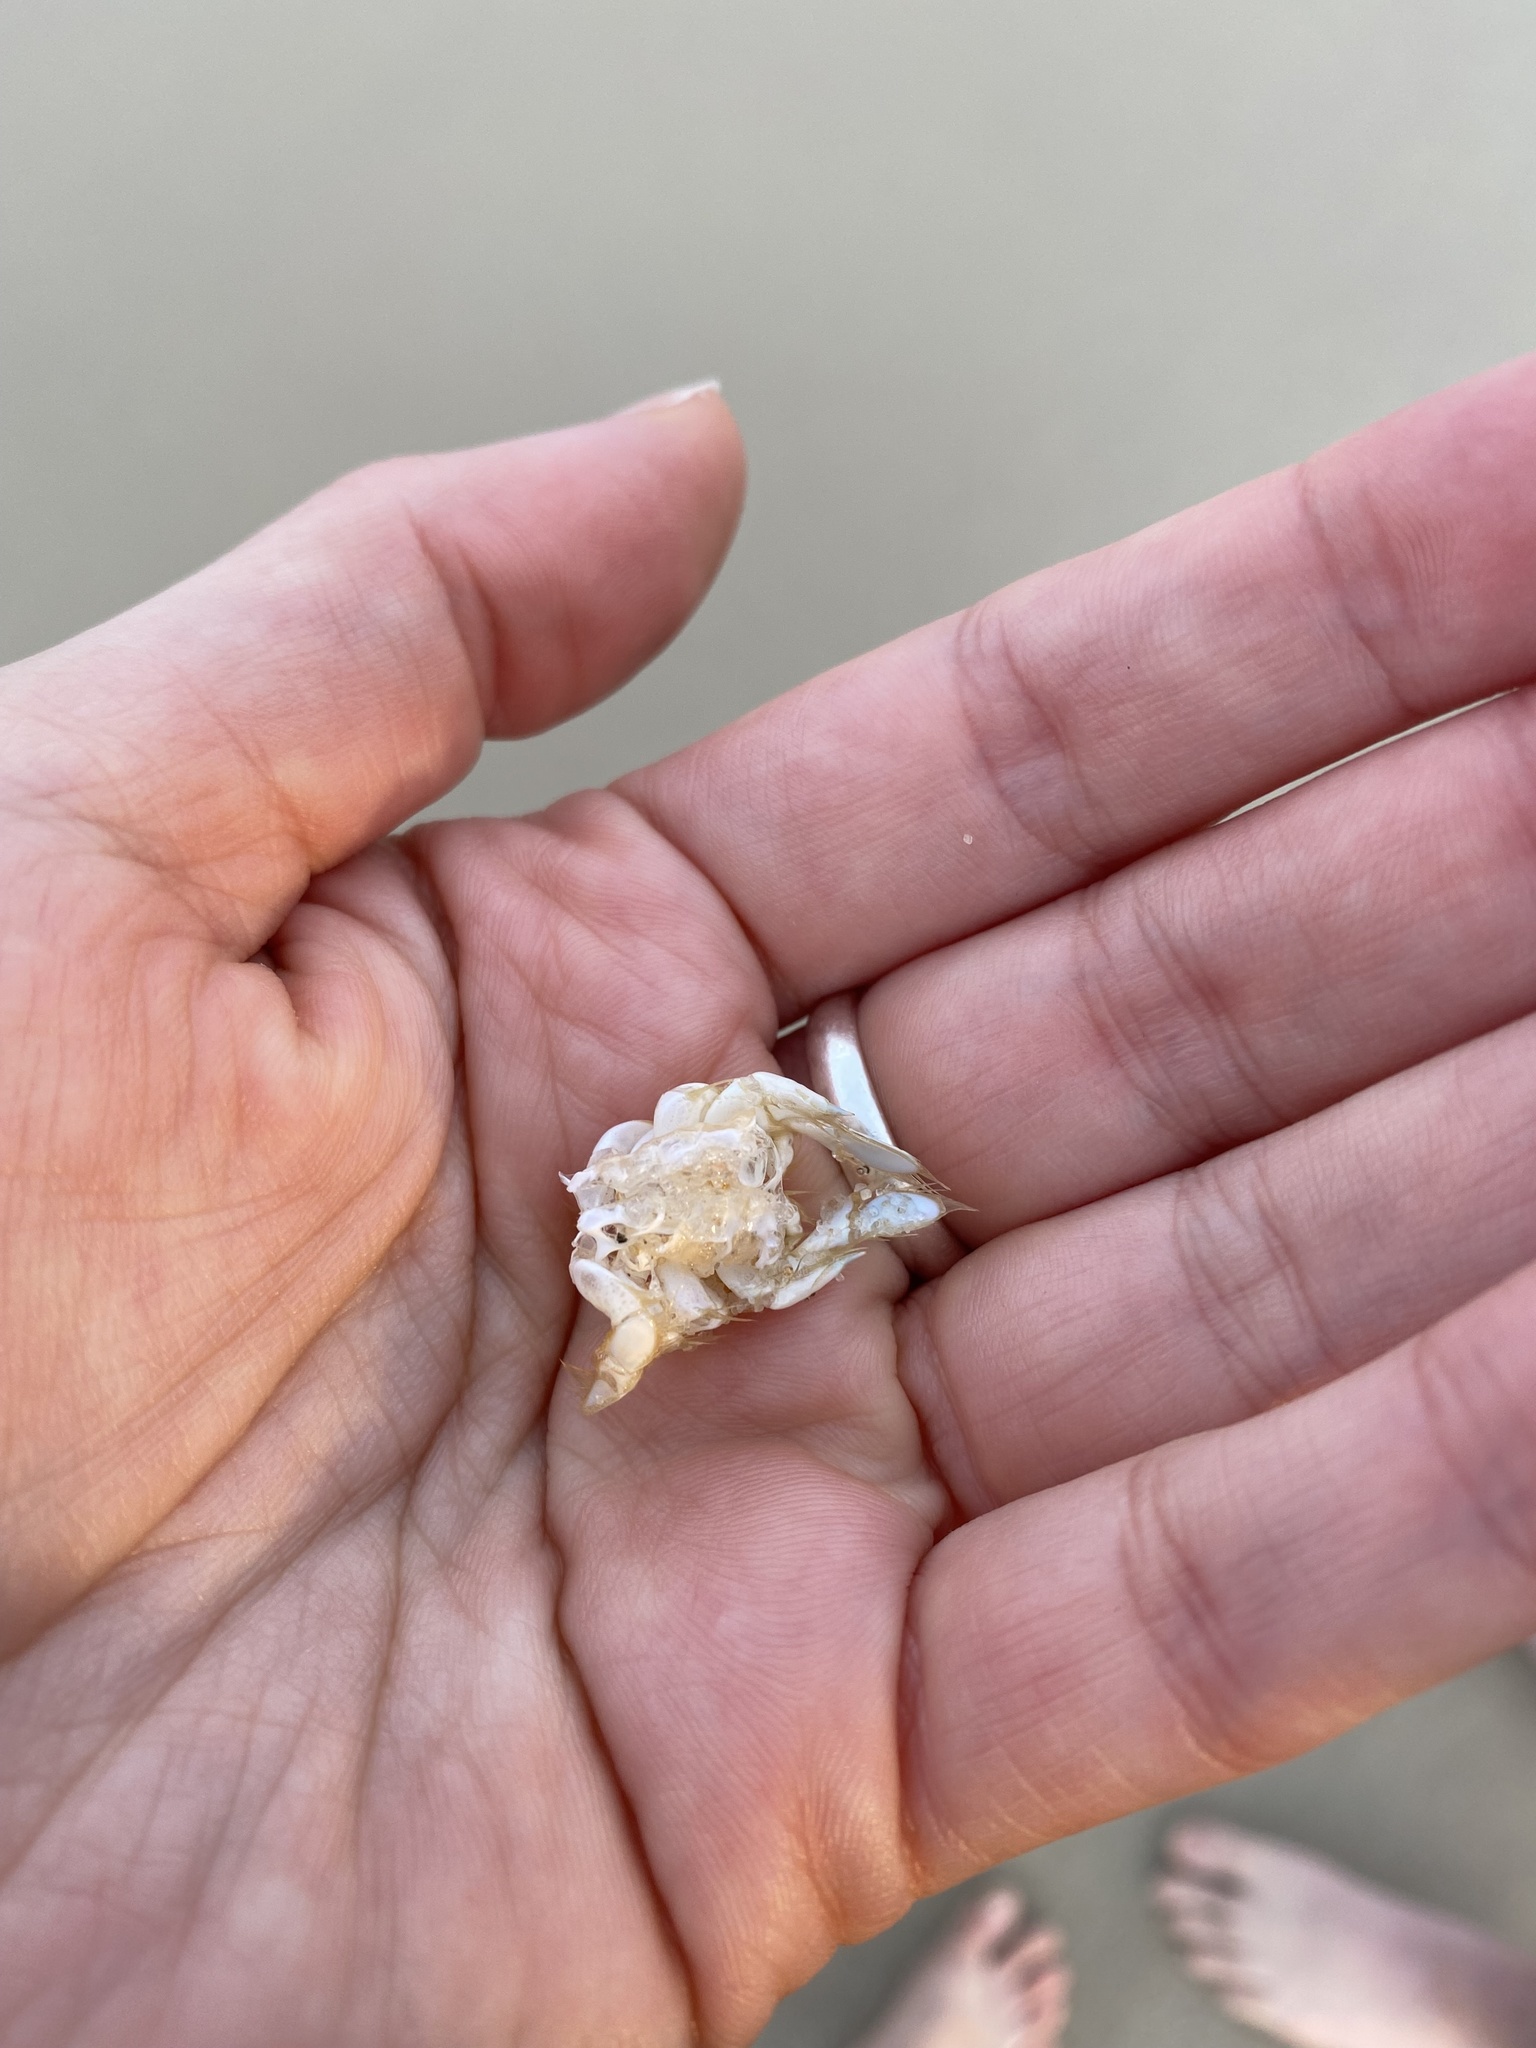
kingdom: Animalia
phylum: Arthropoda
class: Malacostraca
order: Decapoda
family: Hippidae
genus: Emerita
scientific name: Emerita talpoida
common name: Atlantic sand crab
